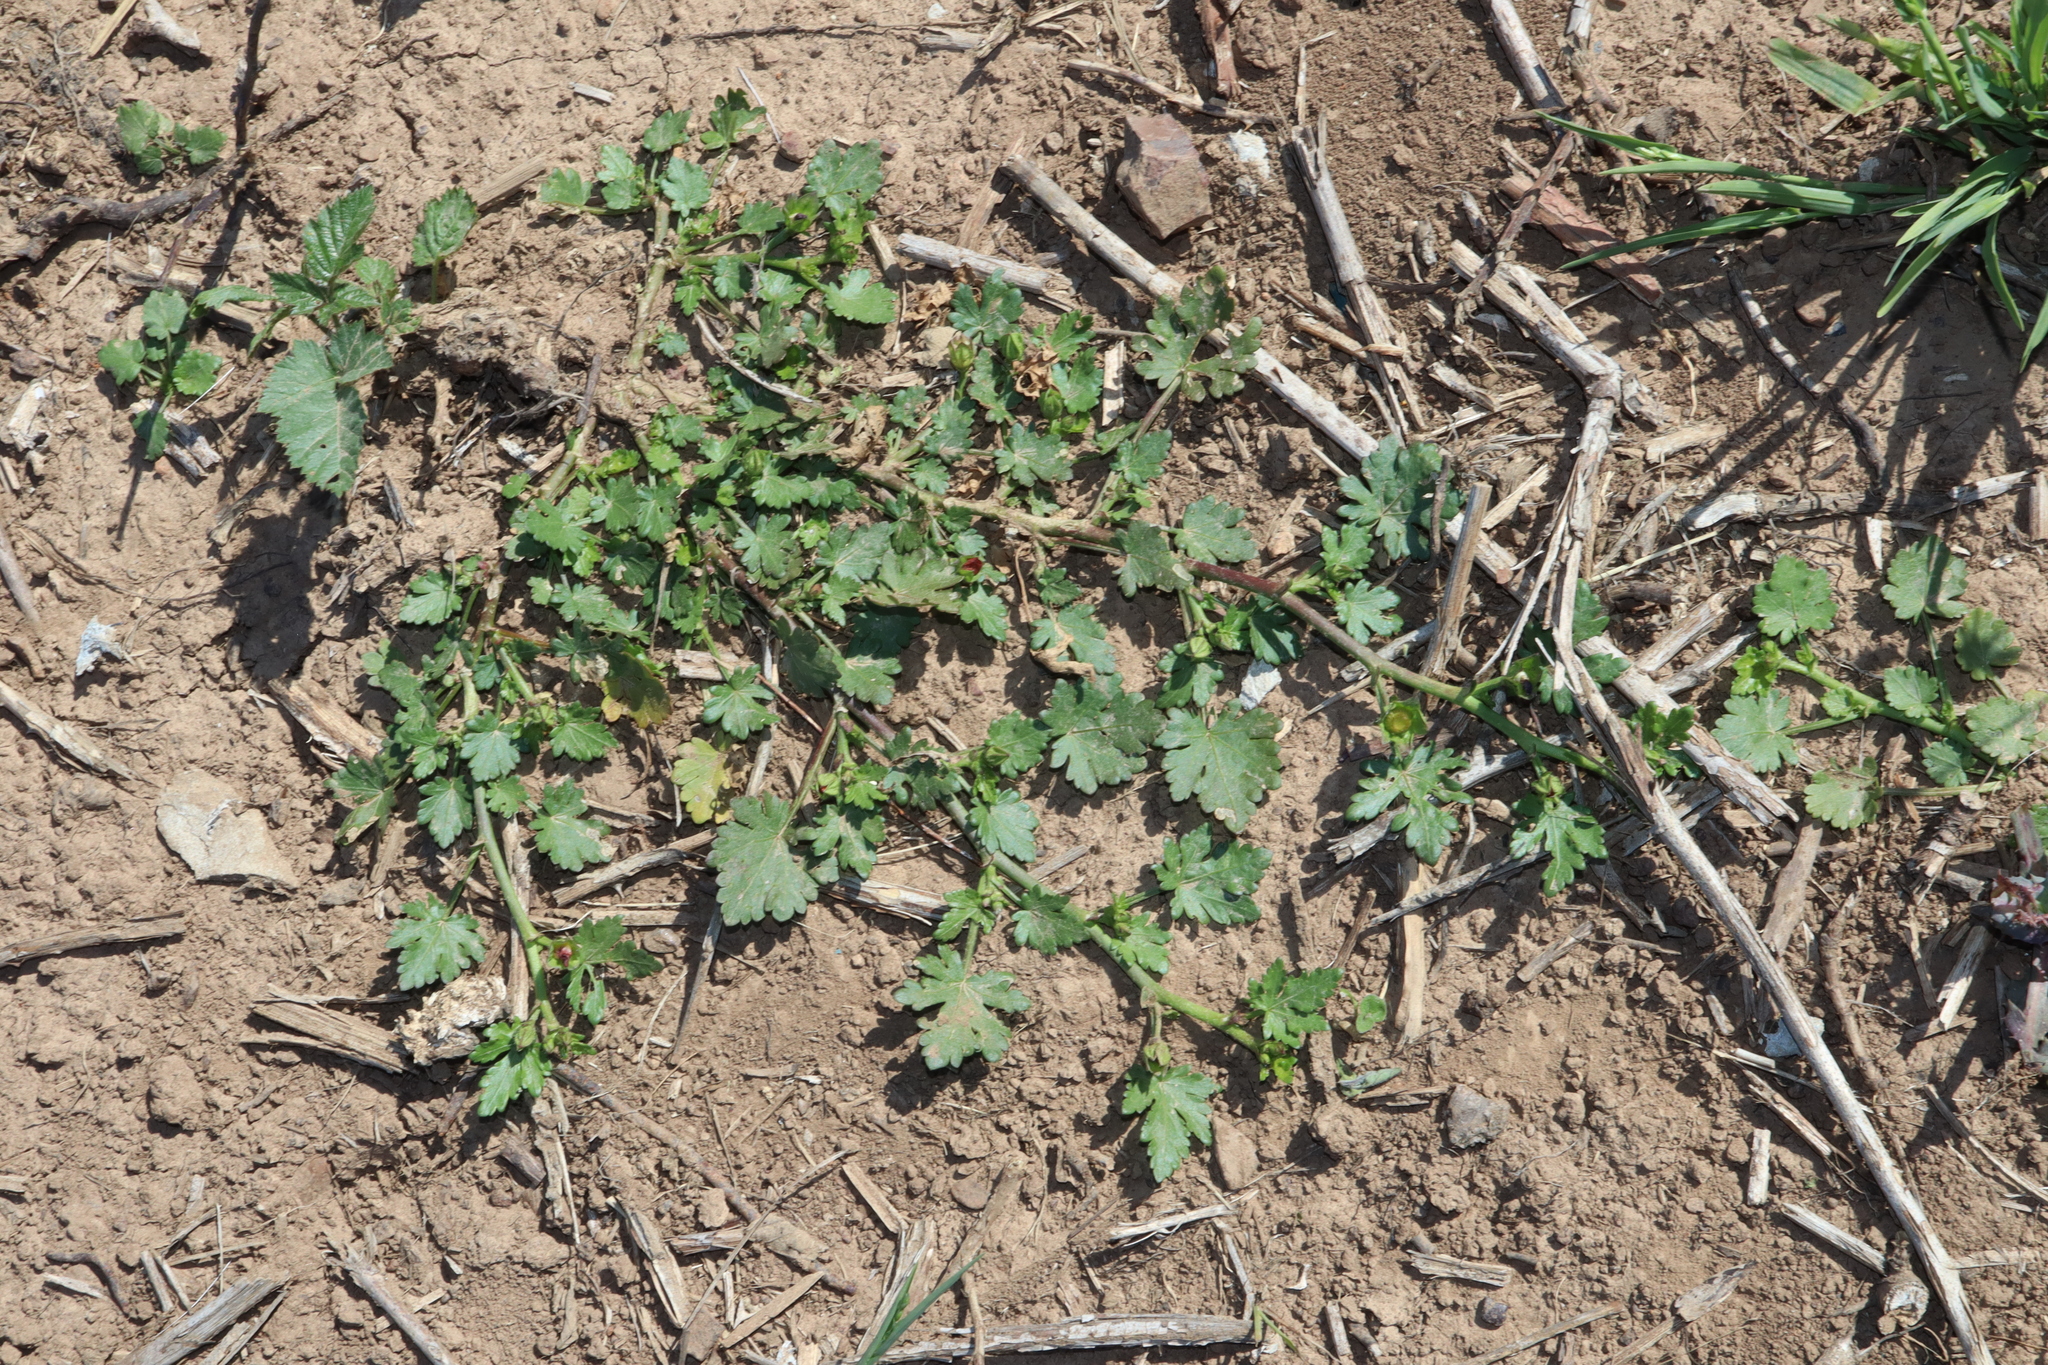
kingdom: Plantae
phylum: Tracheophyta
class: Magnoliopsida
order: Malvales
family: Malvaceae
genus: Modiola
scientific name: Modiola caroliniana
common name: Carolina bristlemallow
